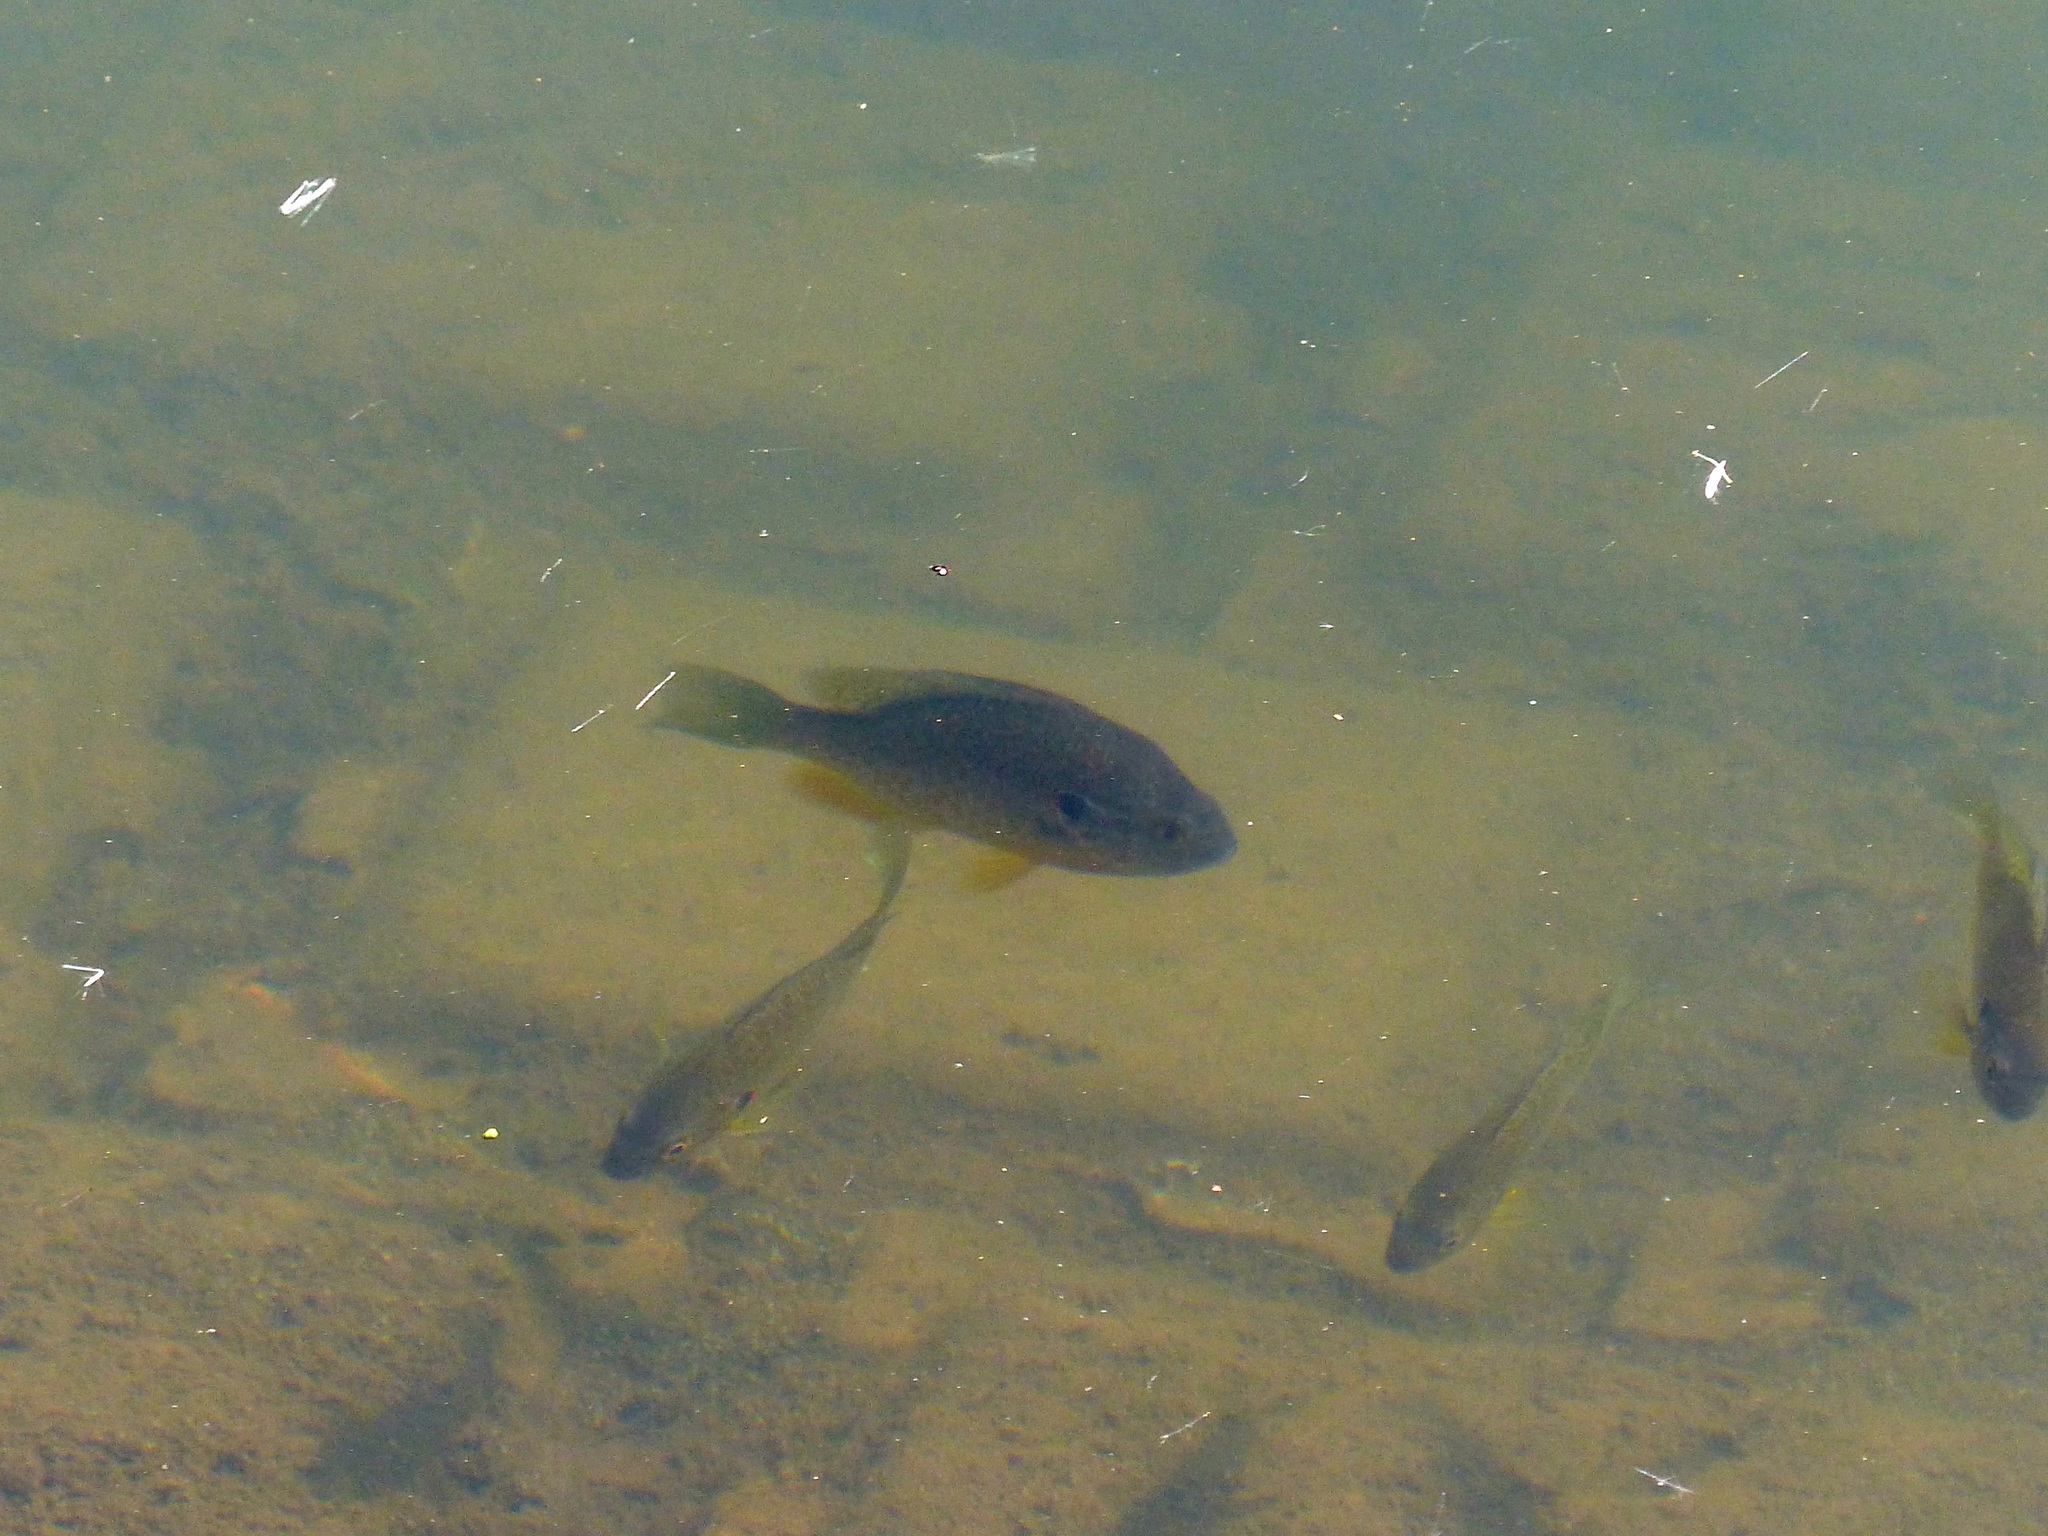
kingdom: Animalia
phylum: Chordata
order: Perciformes
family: Centrarchidae
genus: Lepomis
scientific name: Lepomis gibbosus
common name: Pumpkinseed
